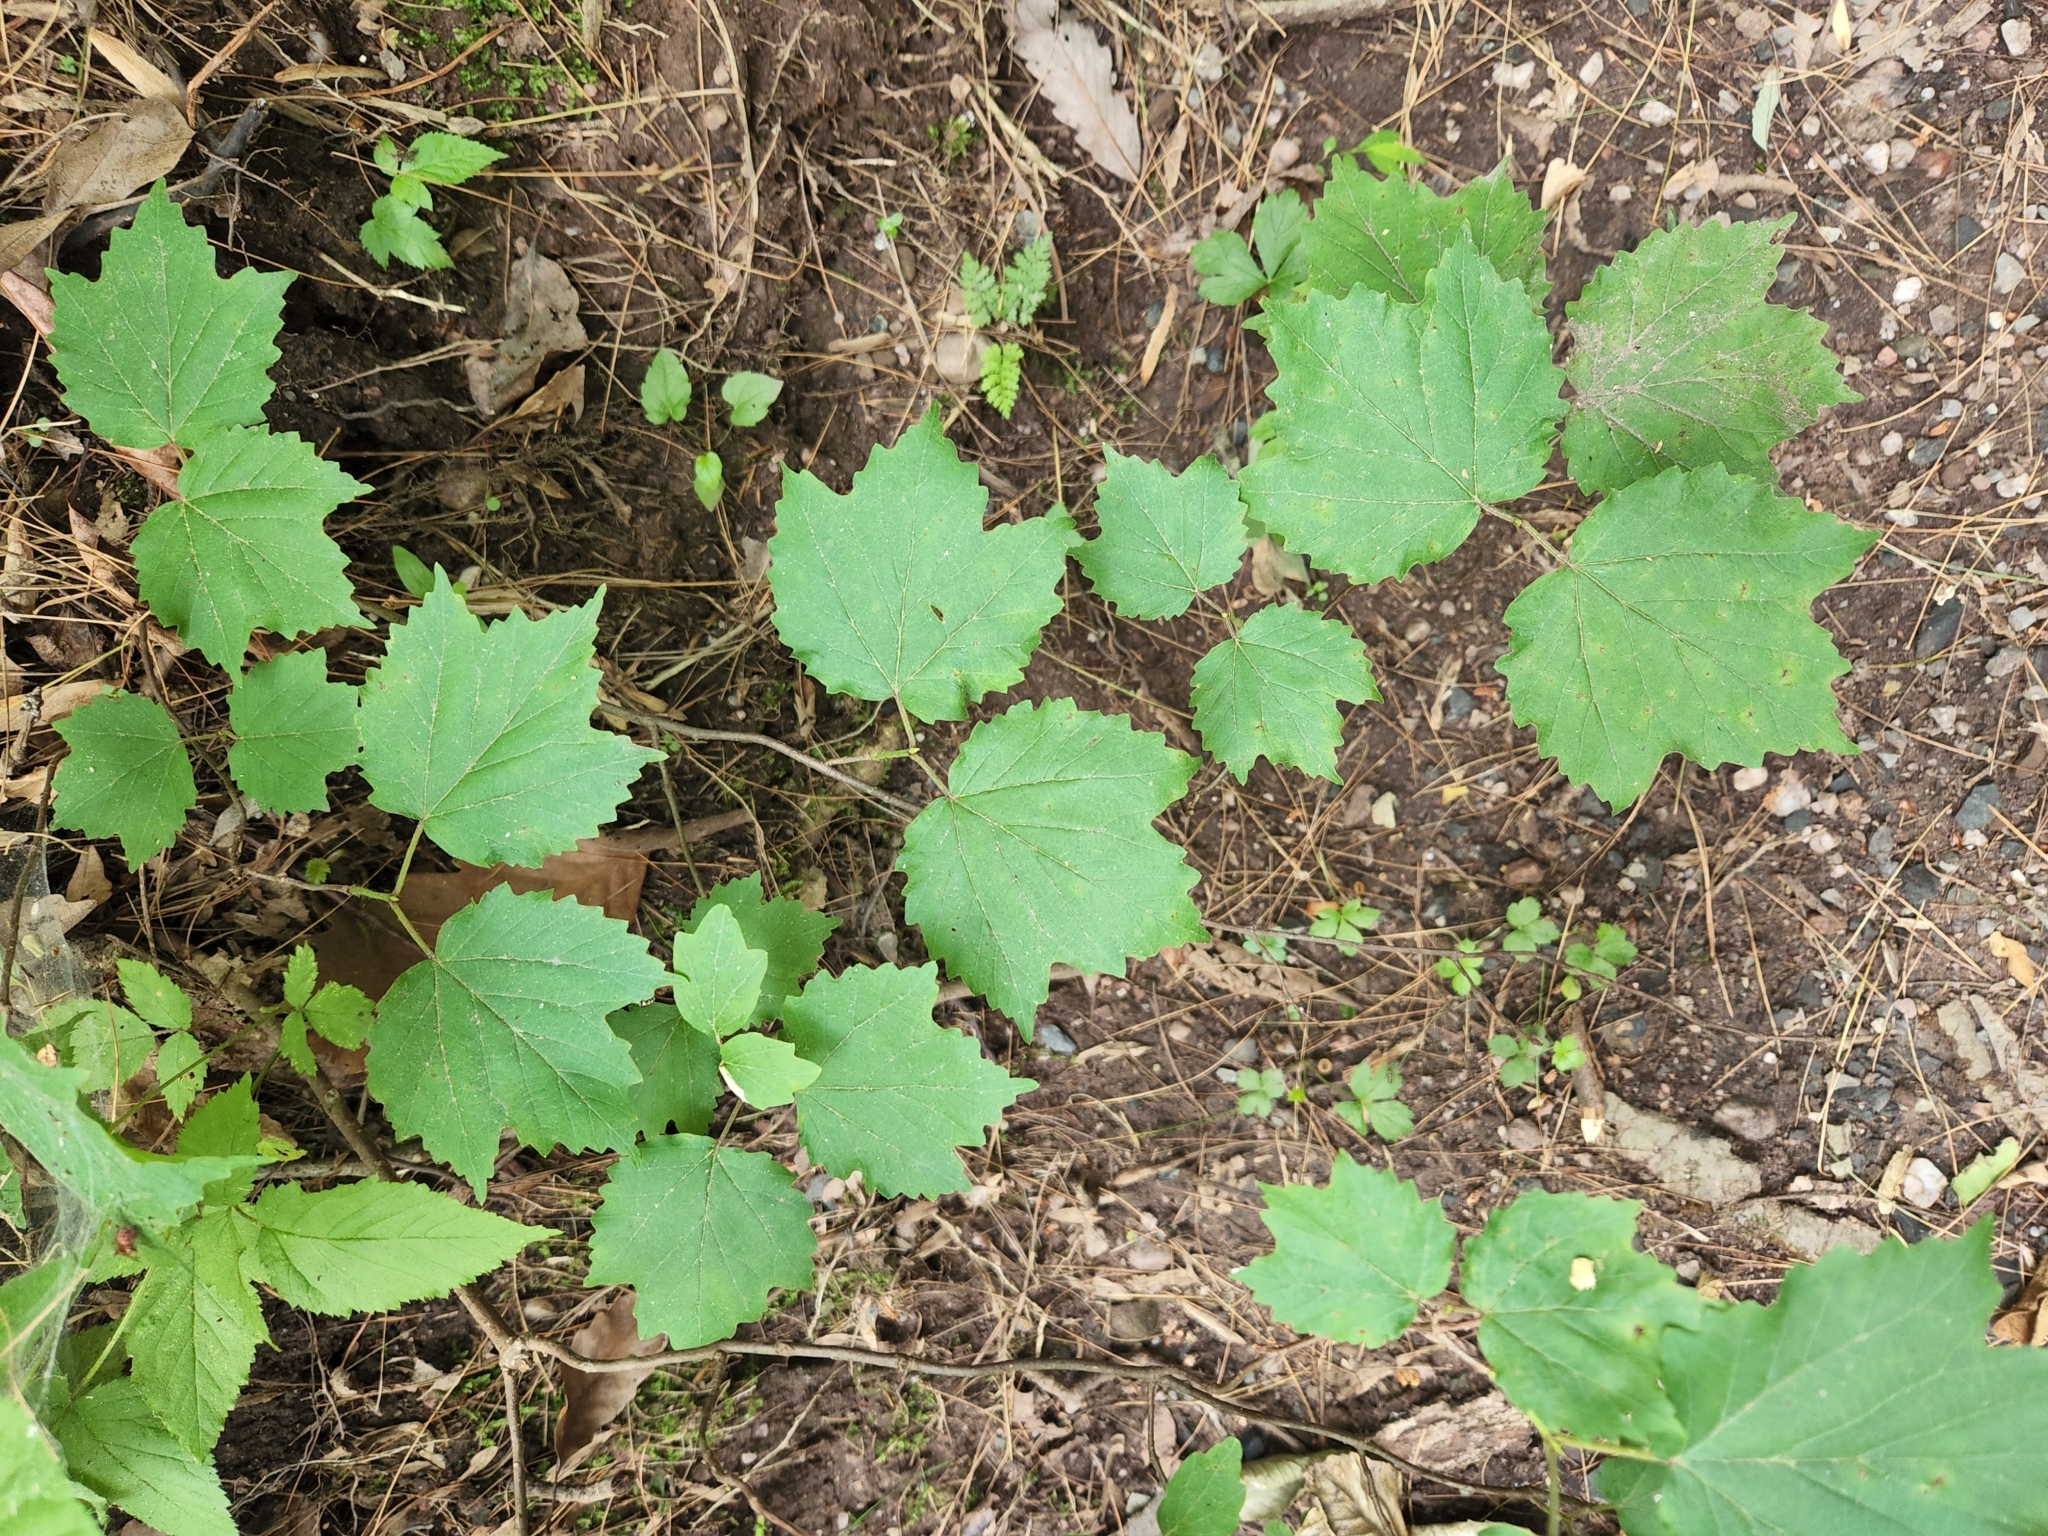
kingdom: Plantae
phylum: Tracheophyta
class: Magnoliopsida
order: Dipsacales
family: Viburnaceae
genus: Viburnum
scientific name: Viburnum acerifolium
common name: Dockmackie
